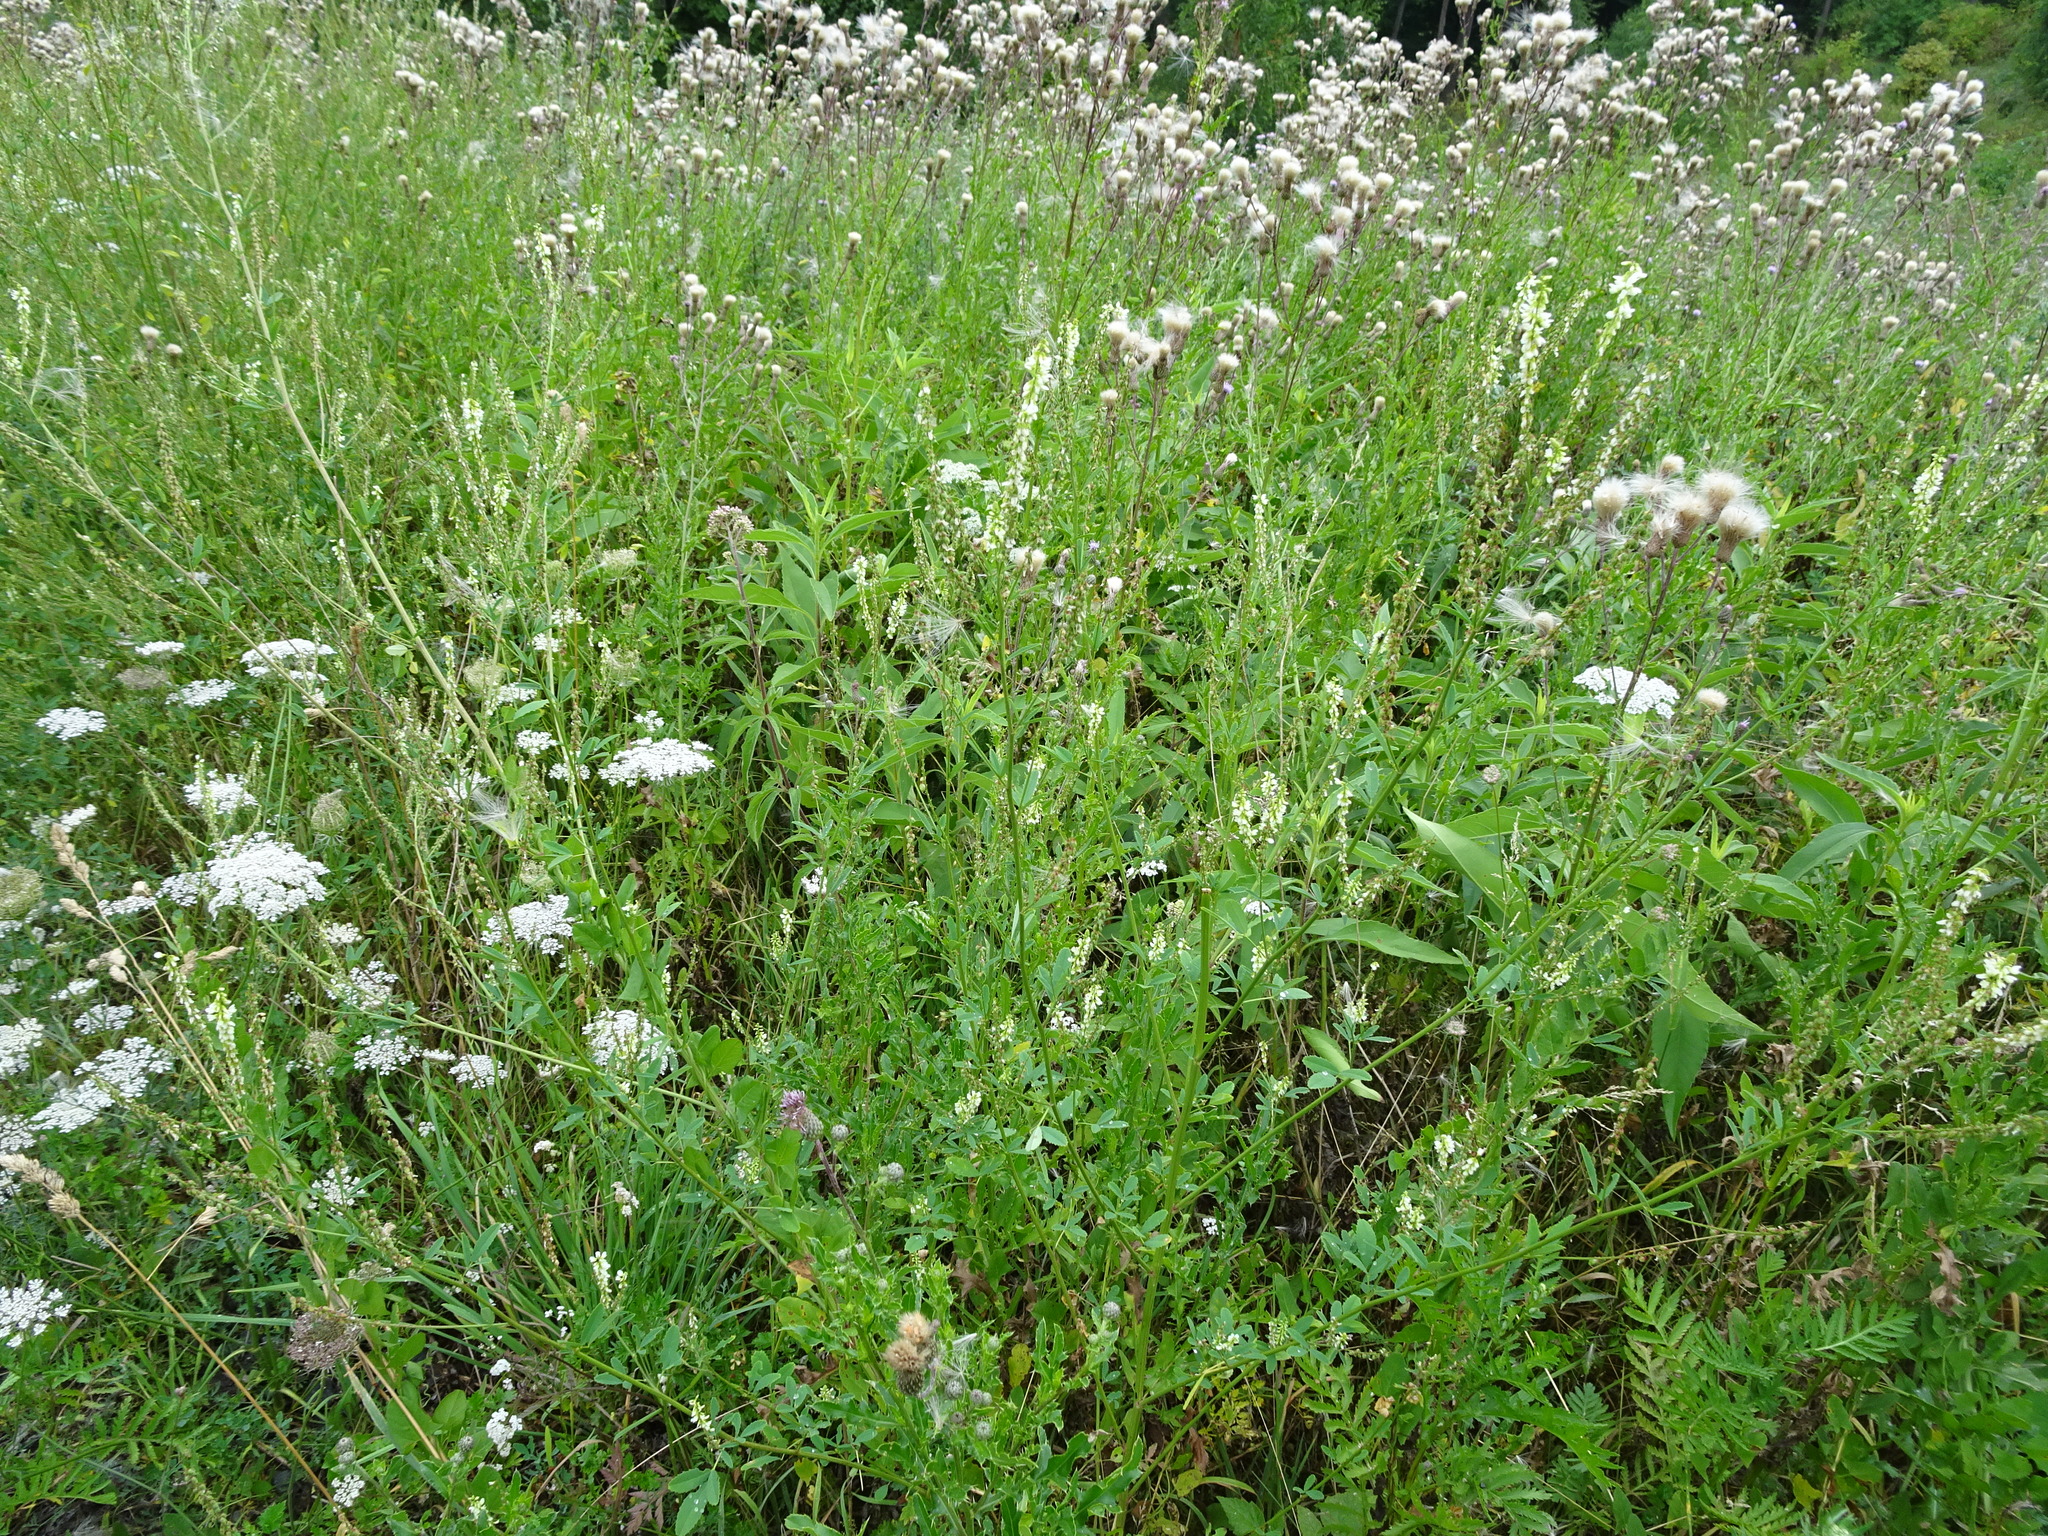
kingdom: Plantae
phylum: Tracheophyta
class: Magnoliopsida
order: Fabales
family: Fabaceae
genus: Melilotus
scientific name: Melilotus albus
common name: White melilot
